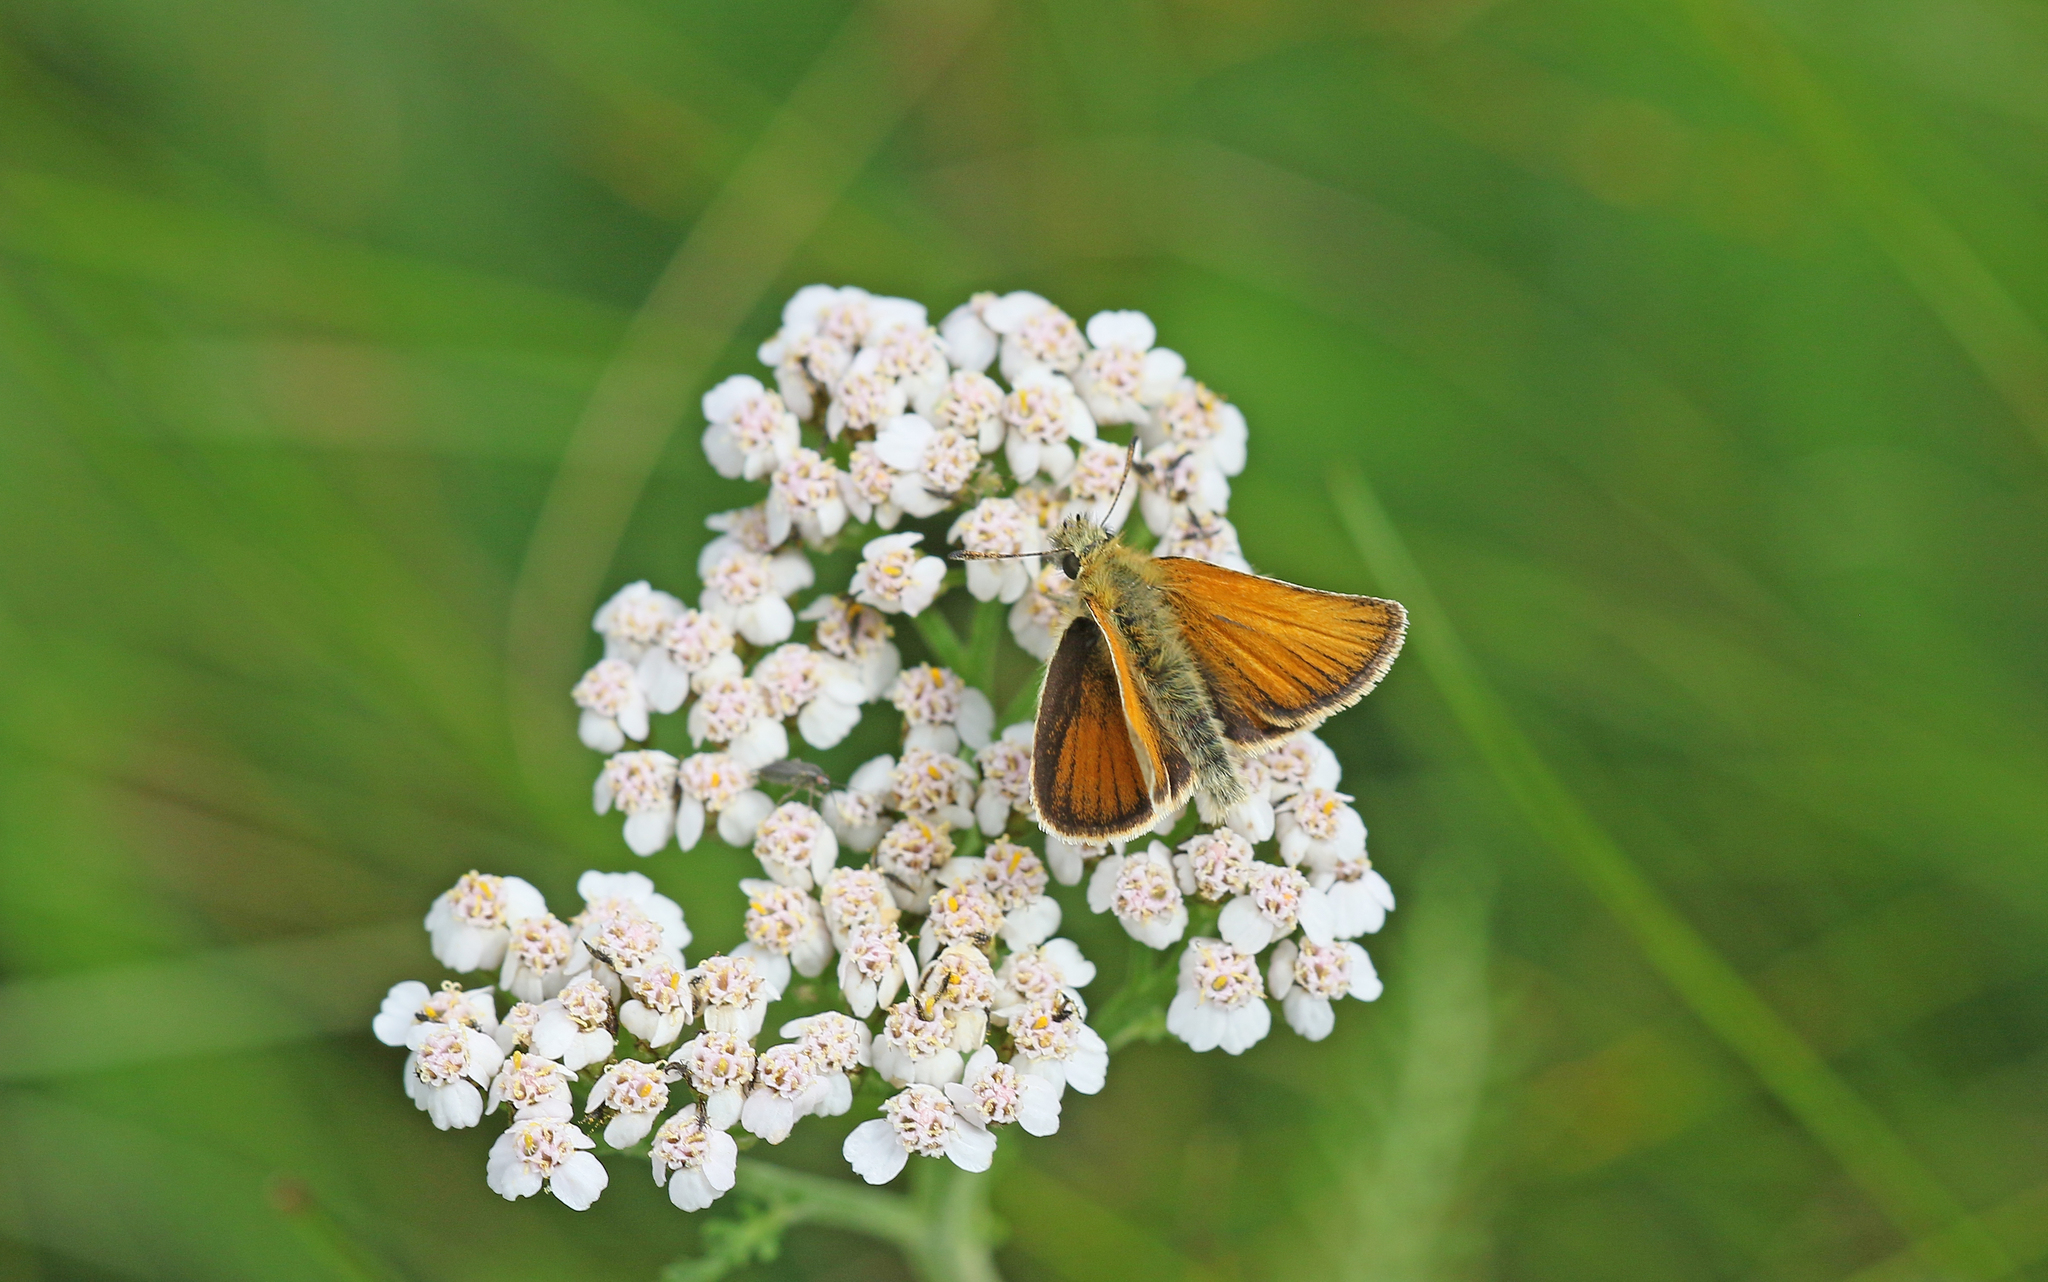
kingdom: Animalia
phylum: Arthropoda
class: Insecta
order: Lepidoptera
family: Hesperiidae
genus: Thymelicus
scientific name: Thymelicus lineola
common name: Essex skipper
